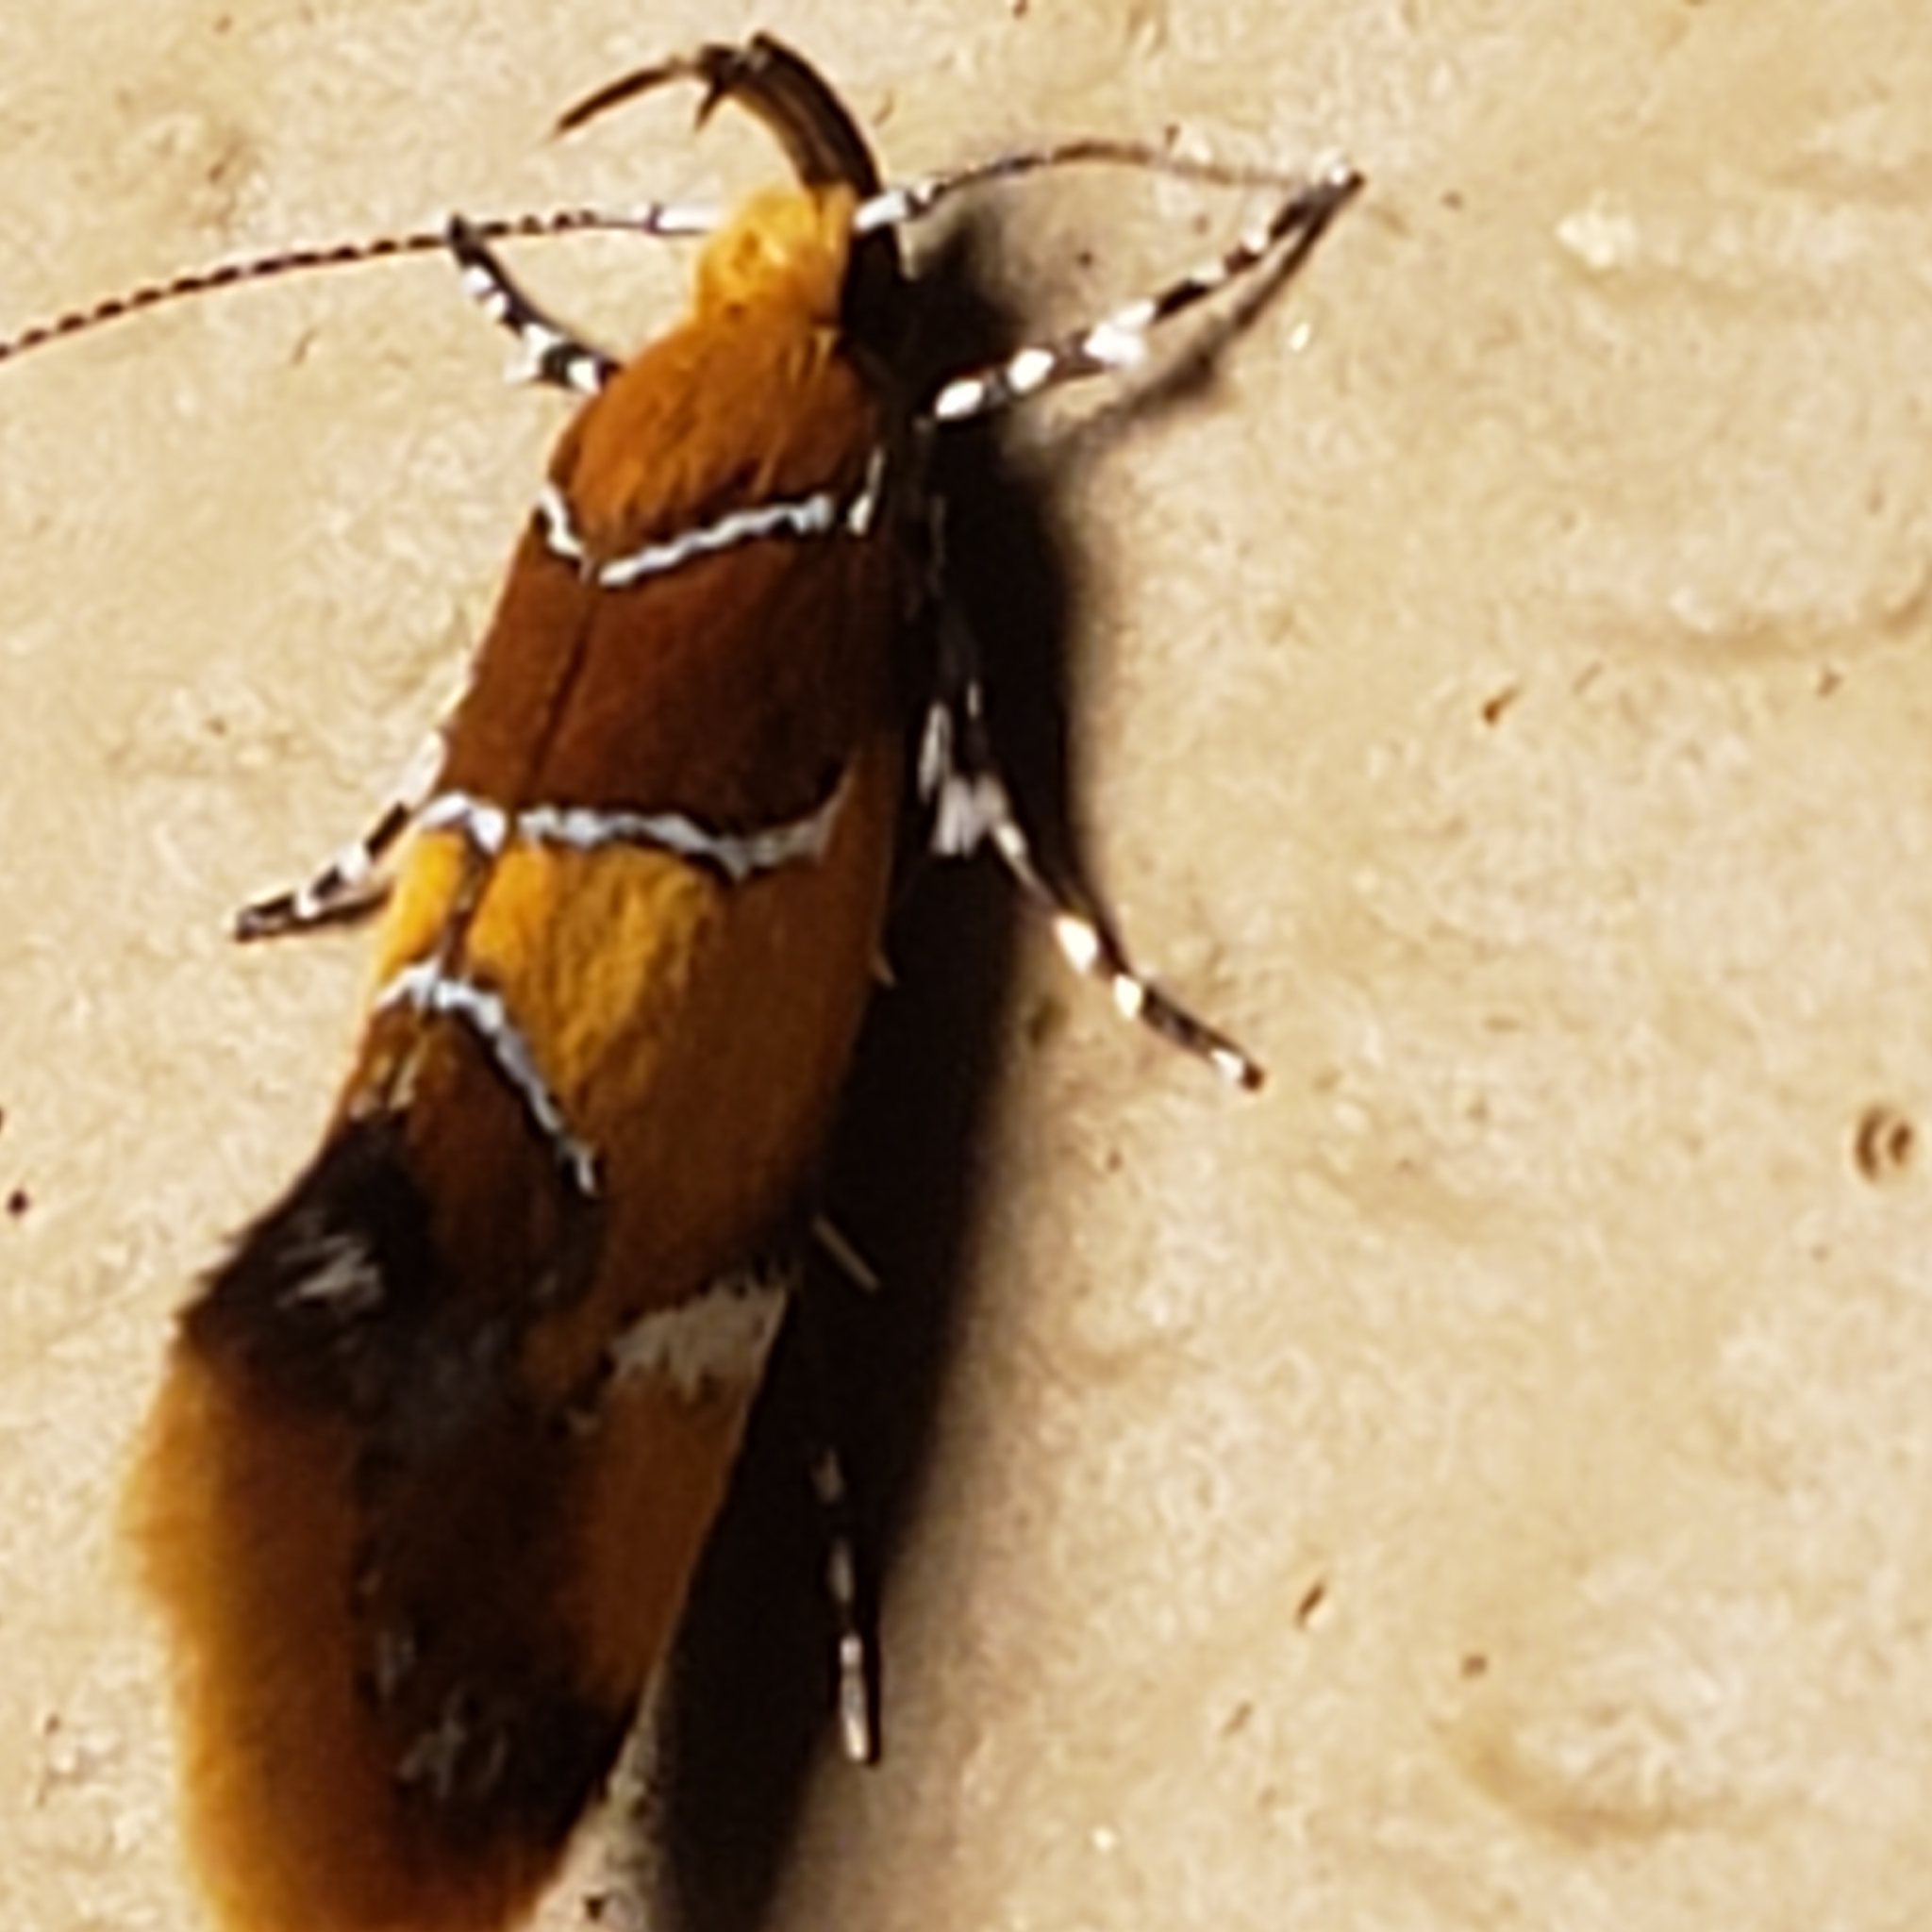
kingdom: Animalia
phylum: Arthropoda
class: Insecta
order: Lepidoptera
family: Oecophoridae
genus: Callima
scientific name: Callima argenticinctella
